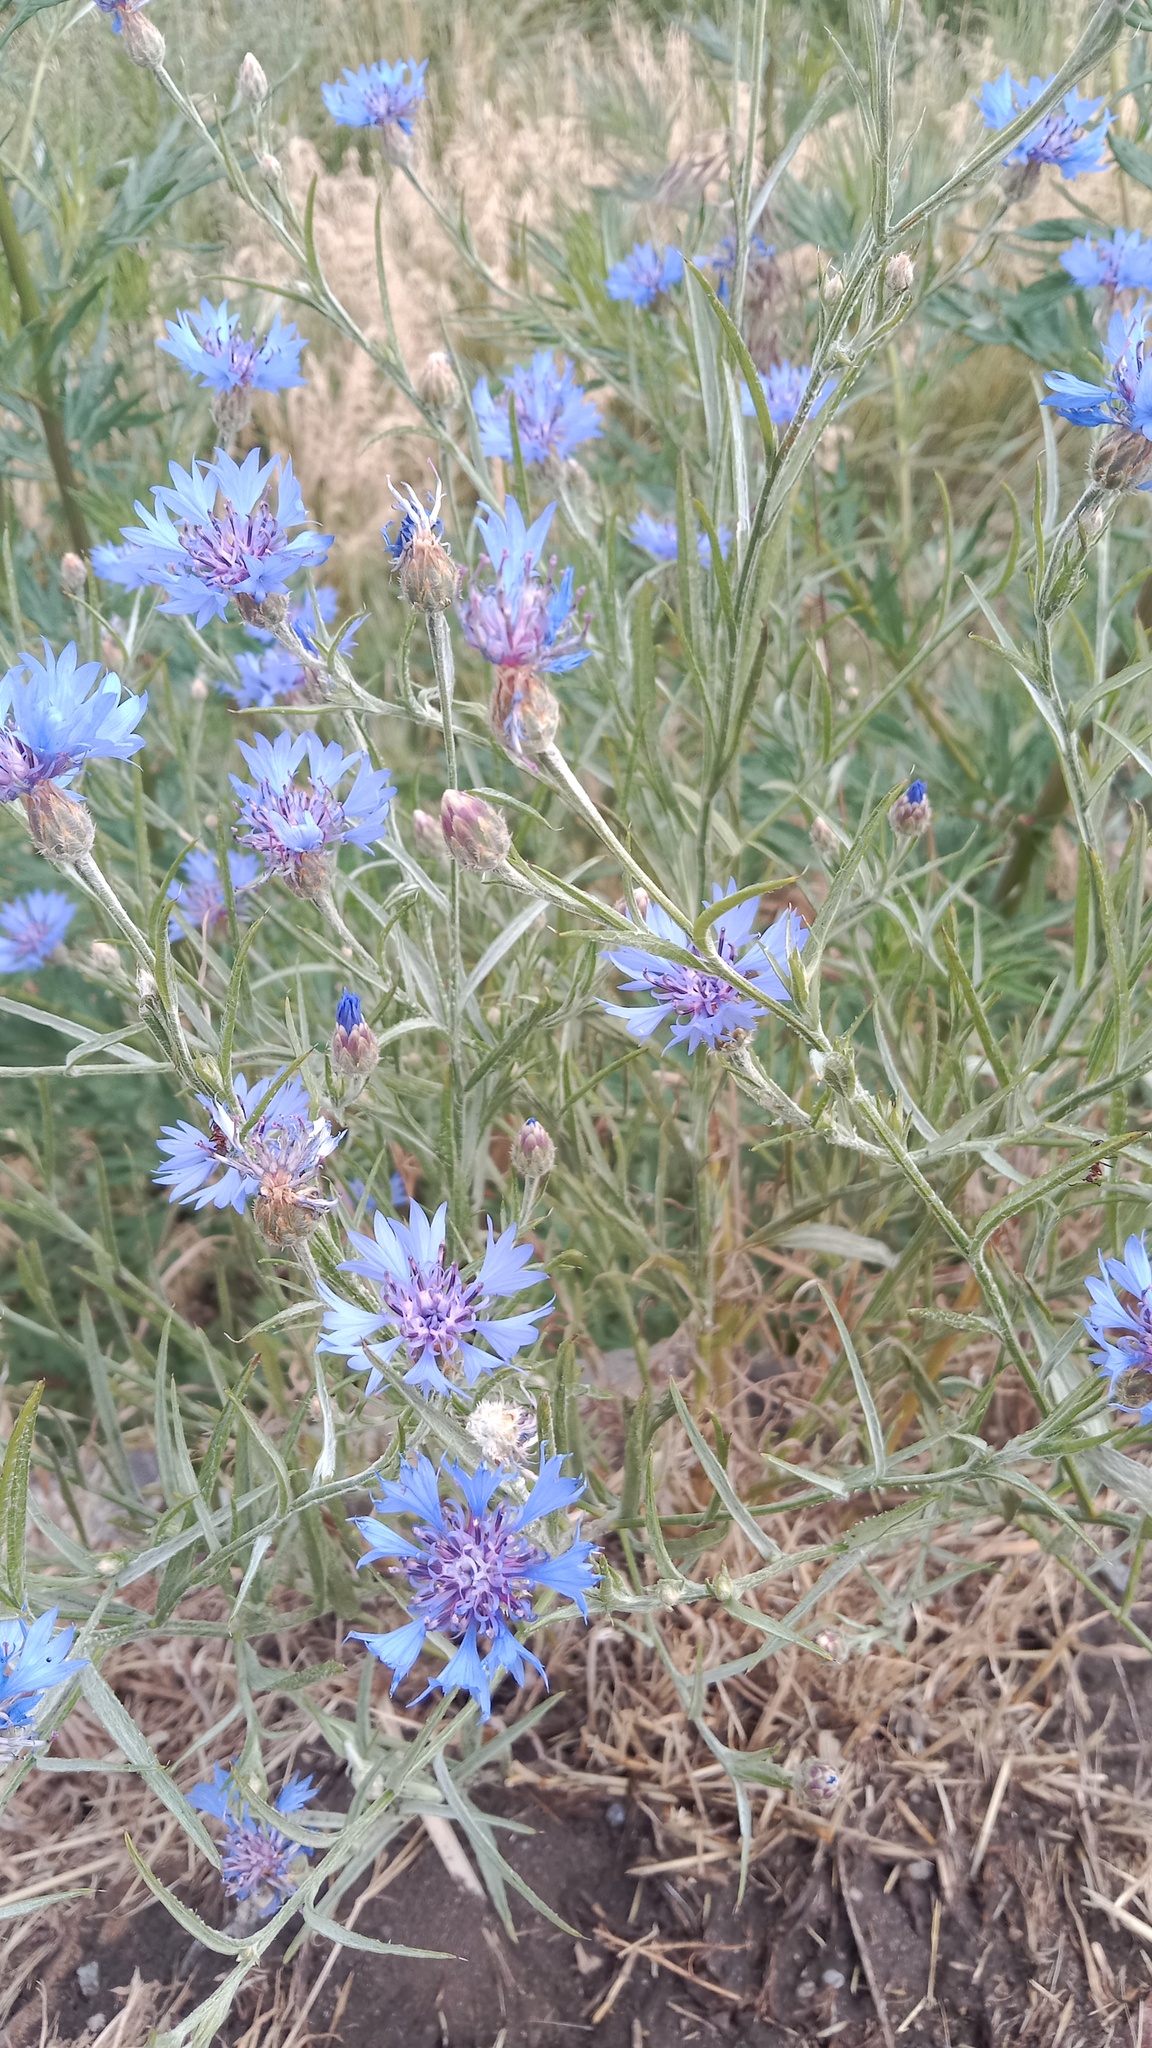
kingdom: Plantae
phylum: Tracheophyta
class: Magnoliopsida
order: Asterales
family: Asteraceae
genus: Centaurea
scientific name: Centaurea cyanus
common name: Cornflower
